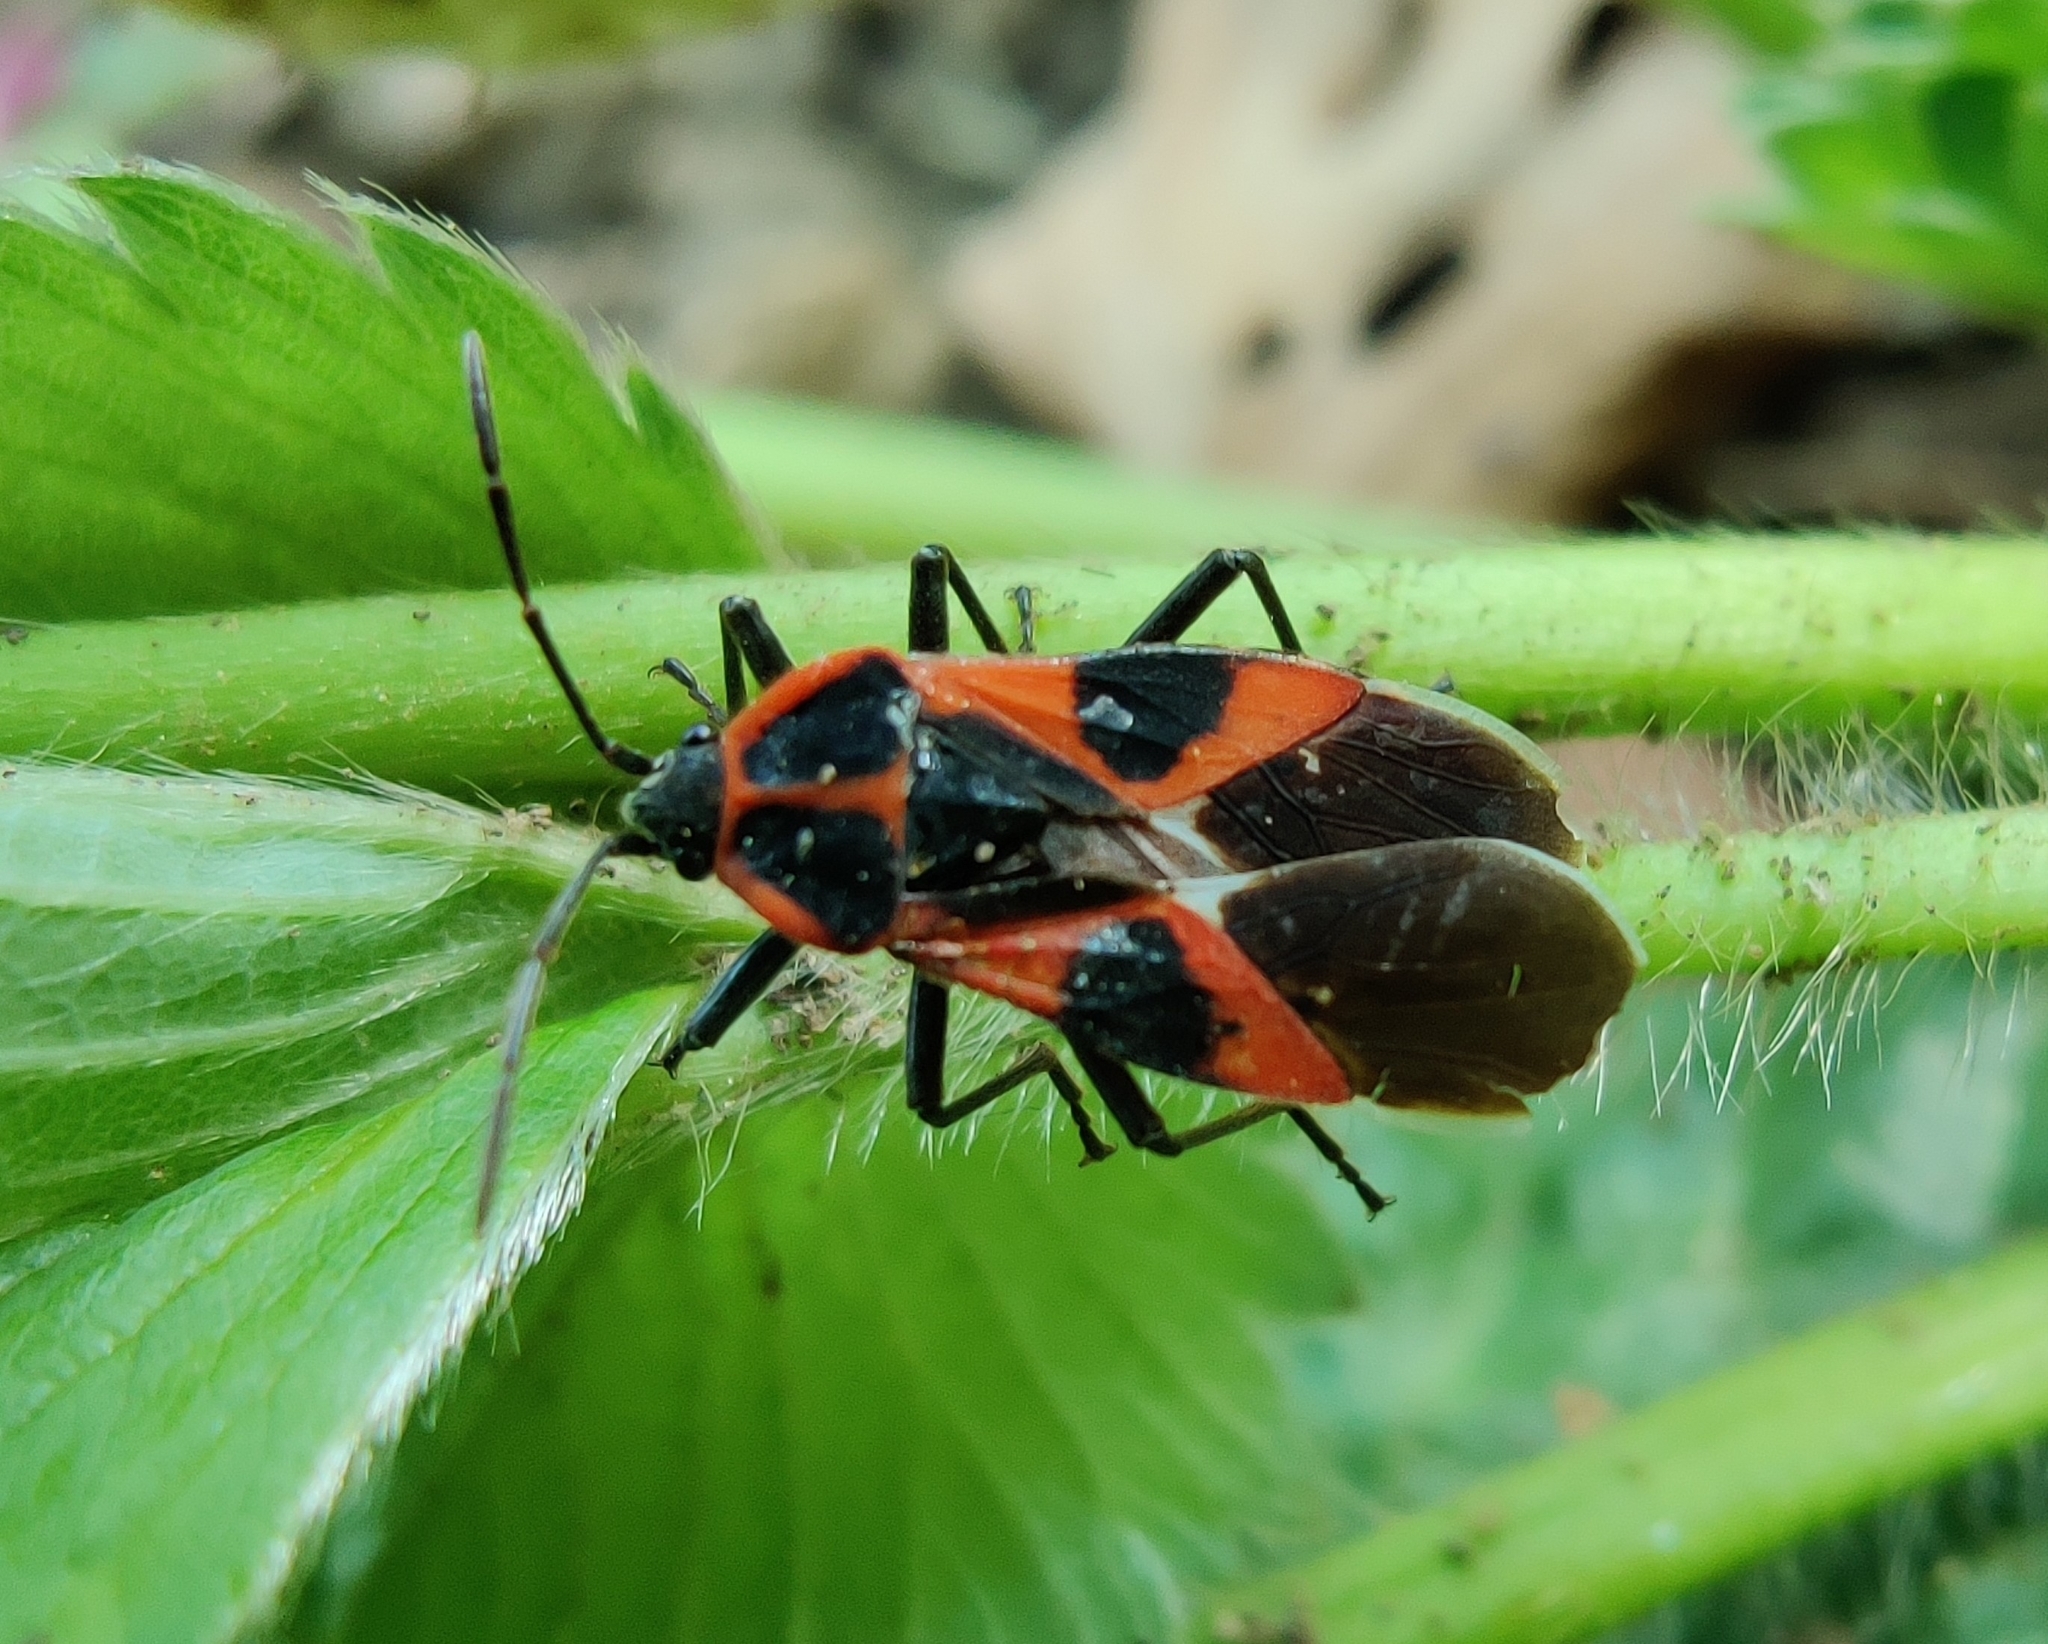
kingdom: Animalia
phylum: Arthropoda
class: Insecta
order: Hemiptera
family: Lygaeidae
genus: Tropidothorax
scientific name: Tropidothorax leucopterus
